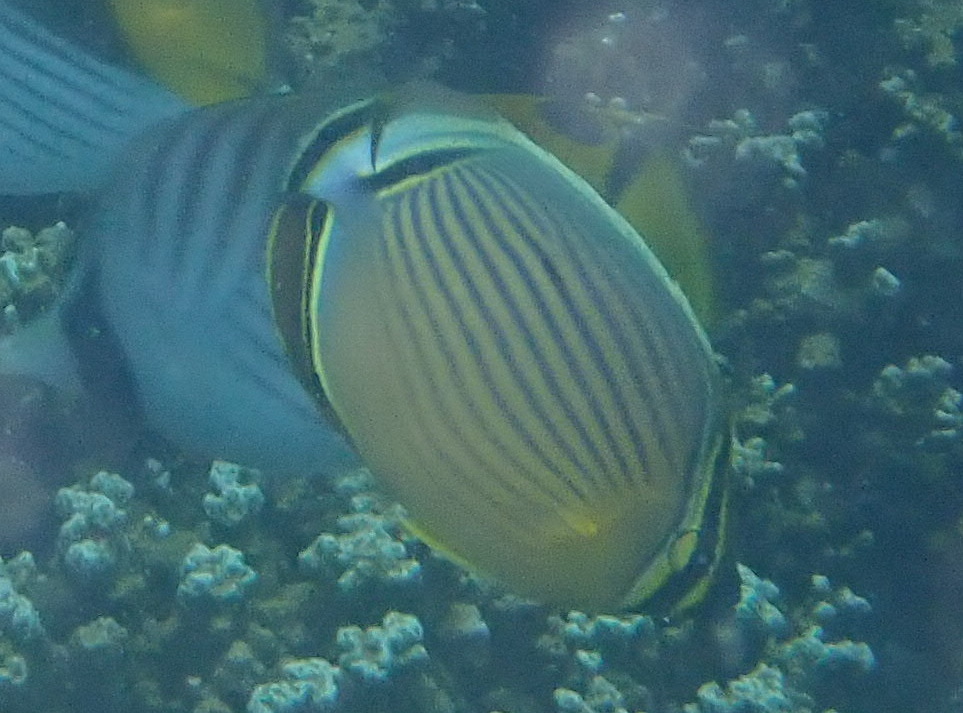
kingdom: Animalia
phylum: Chordata
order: Perciformes
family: Chaetodontidae
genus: Chaetodon
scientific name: Chaetodon lunulatus
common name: Redfin butterflyfish
